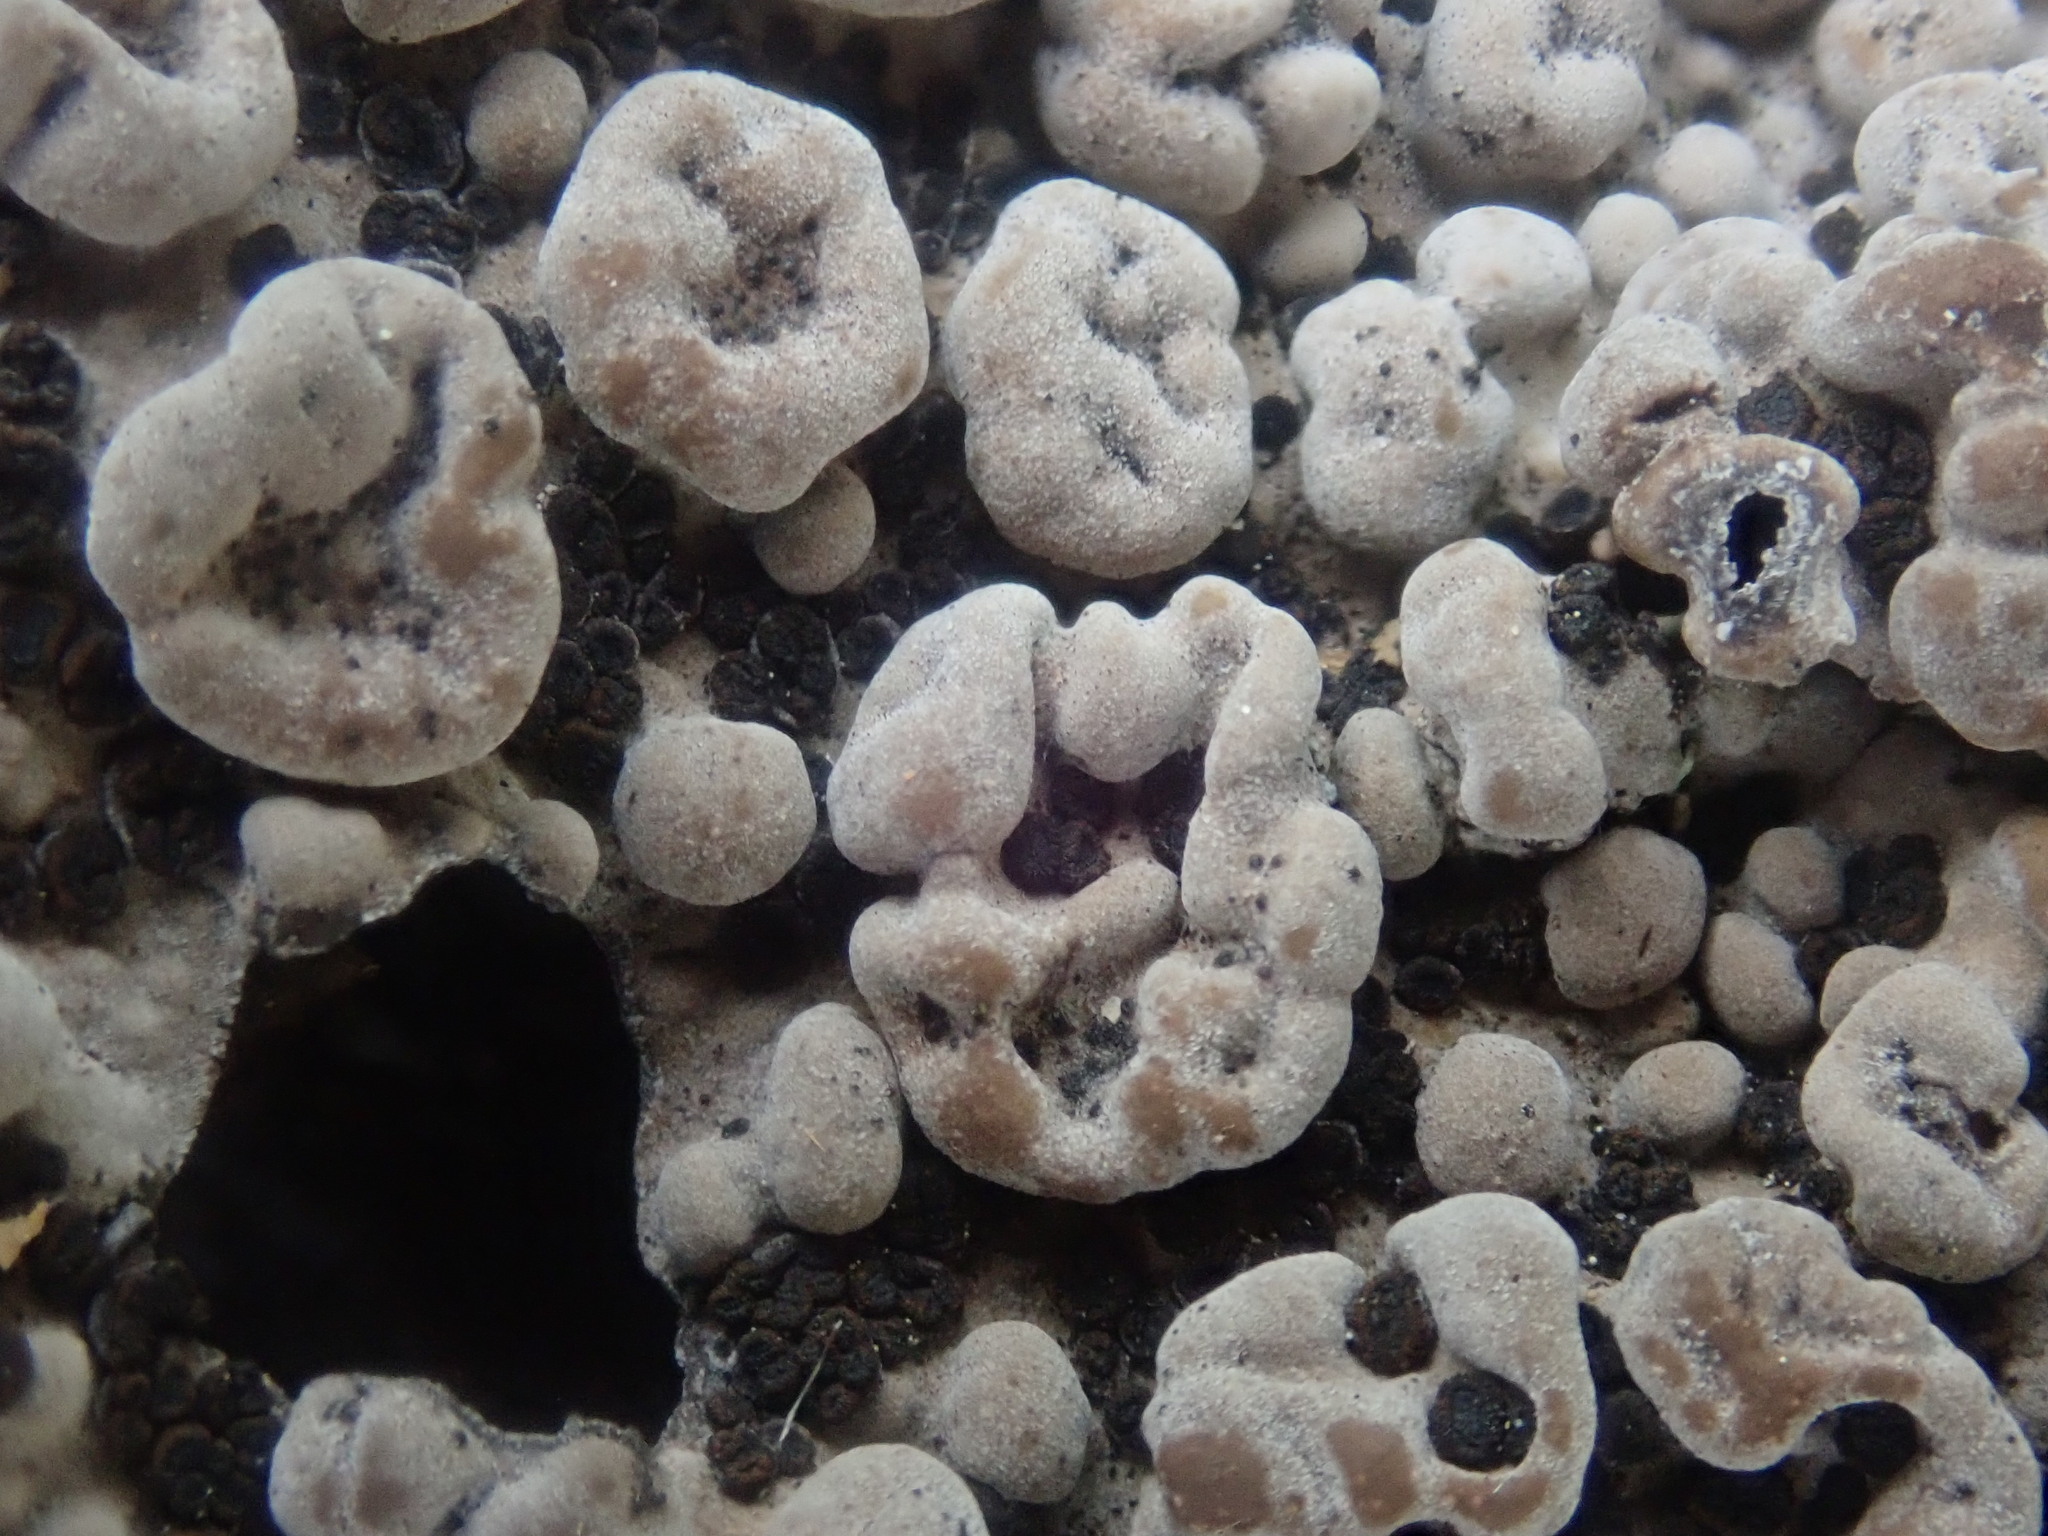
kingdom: Fungi
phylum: Ascomycota
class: Lecanoromycetes
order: Umbilicariales
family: Umbilicariaceae
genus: Lasallia
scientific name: Lasallia papulosa
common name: Common toadskin lichen
